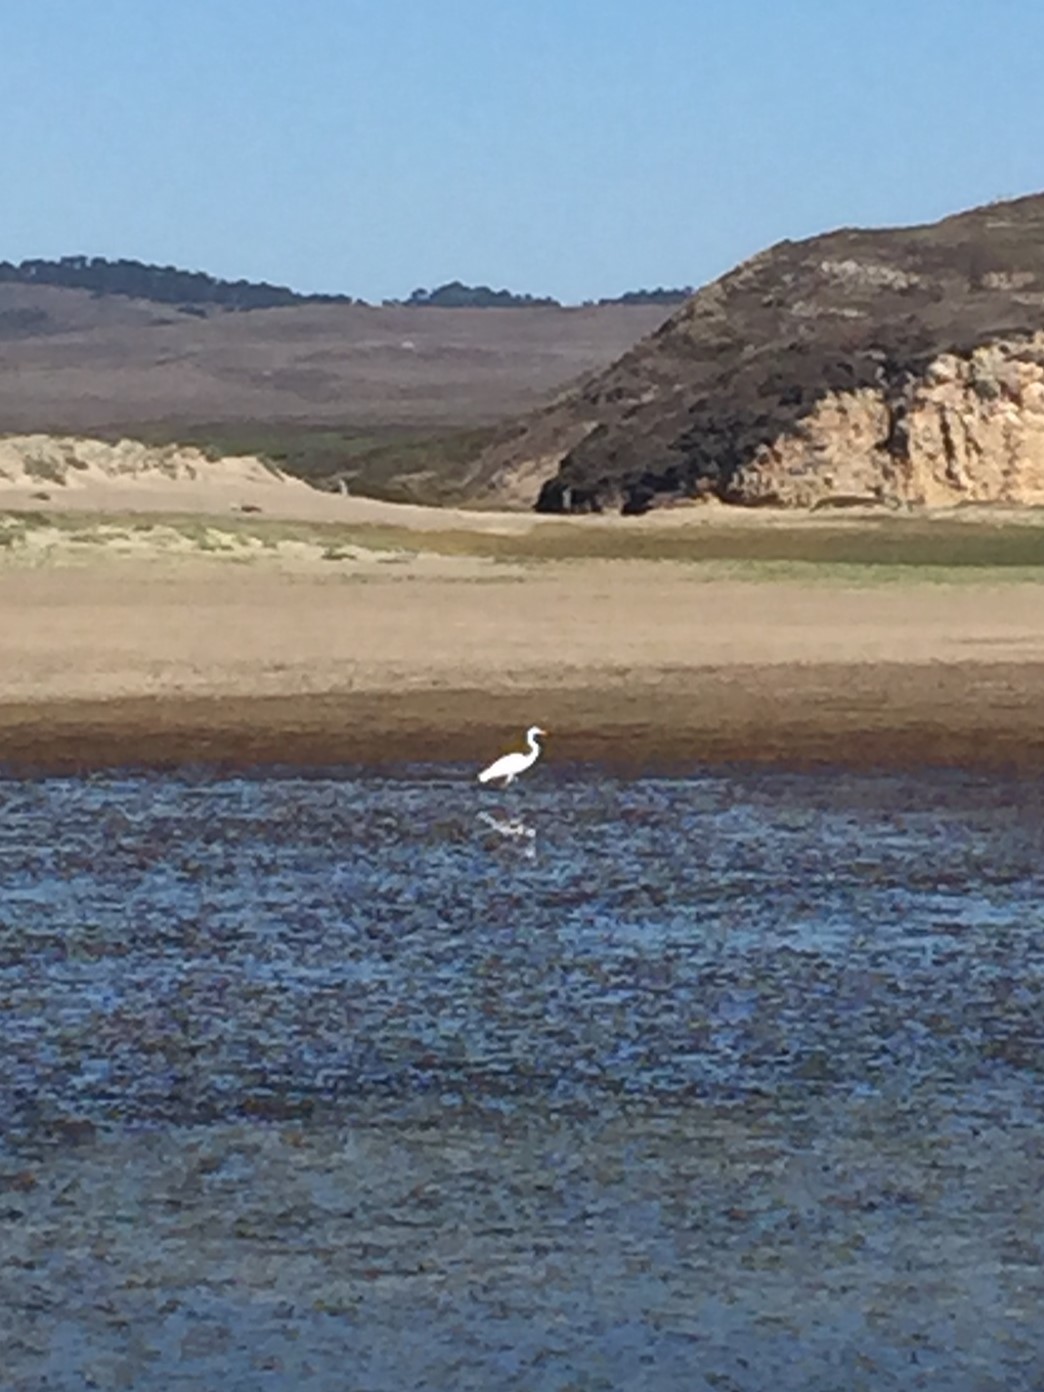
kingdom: Animalia
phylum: Chordata
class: Aves
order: Pelecaniformes
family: Ardeidae
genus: Ardea
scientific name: Ardea alba
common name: Great egret
